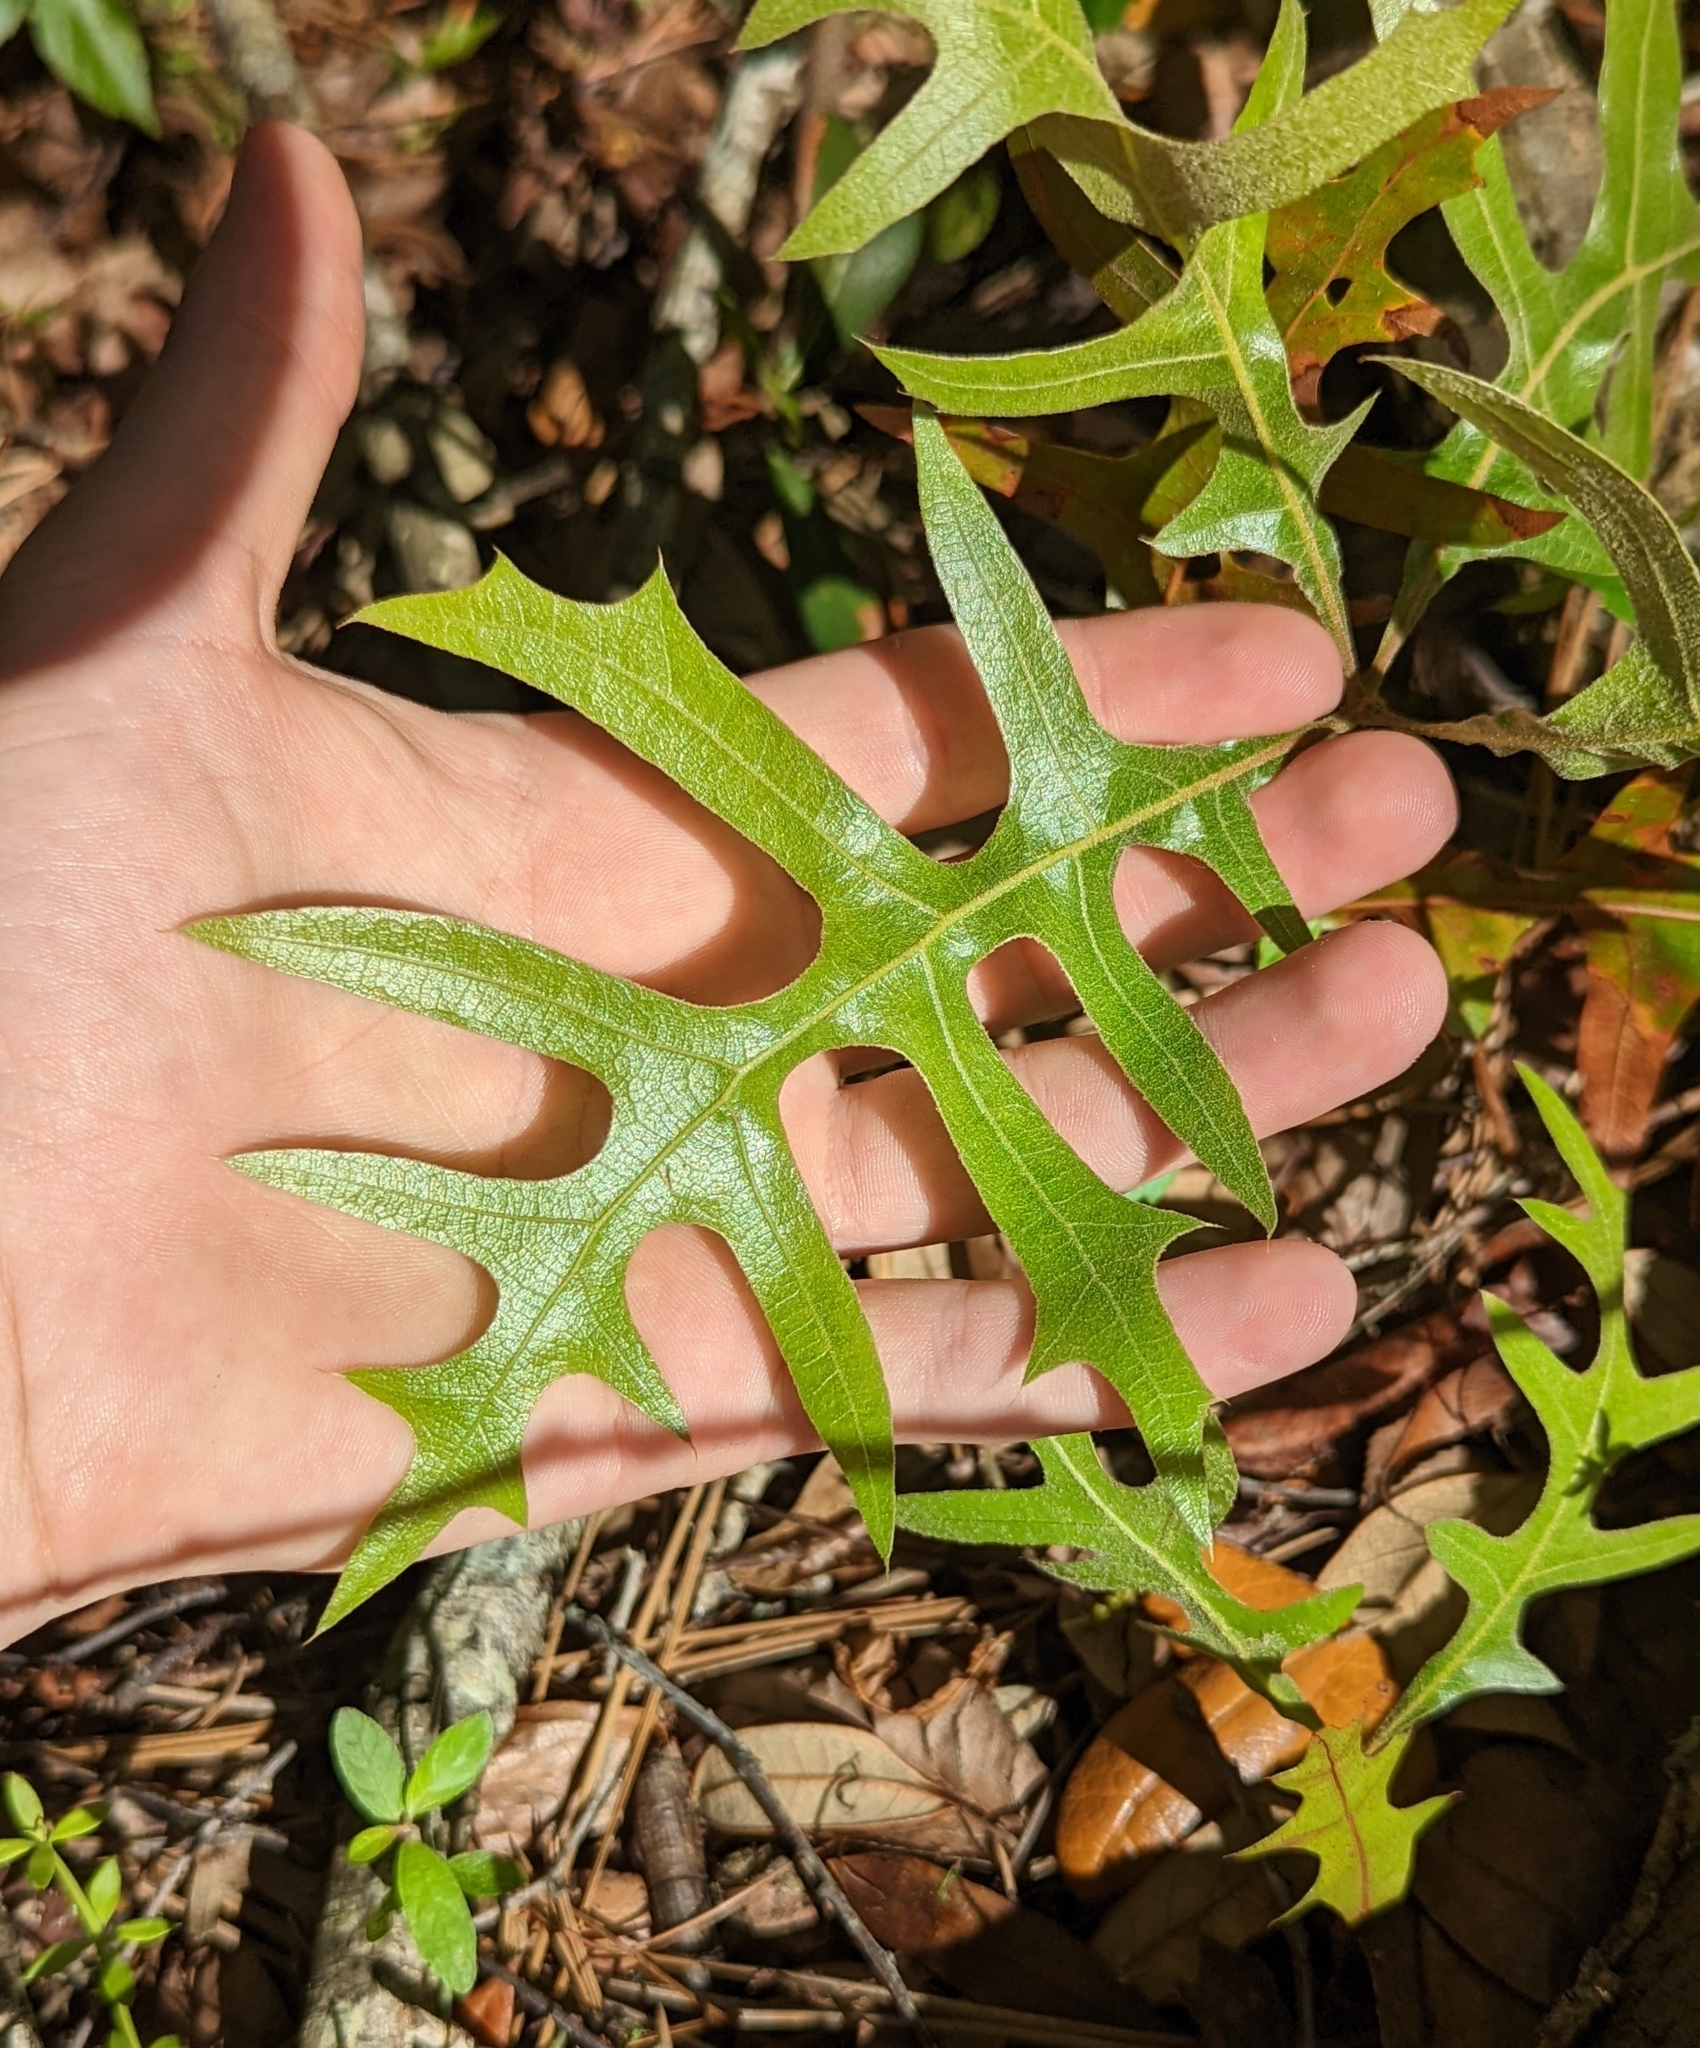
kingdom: Plantae
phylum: Tracheophyta
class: Magnoliopsida
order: Fagales
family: Fagaceae
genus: Quercus
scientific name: Quercus laevis
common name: Turkey oak
